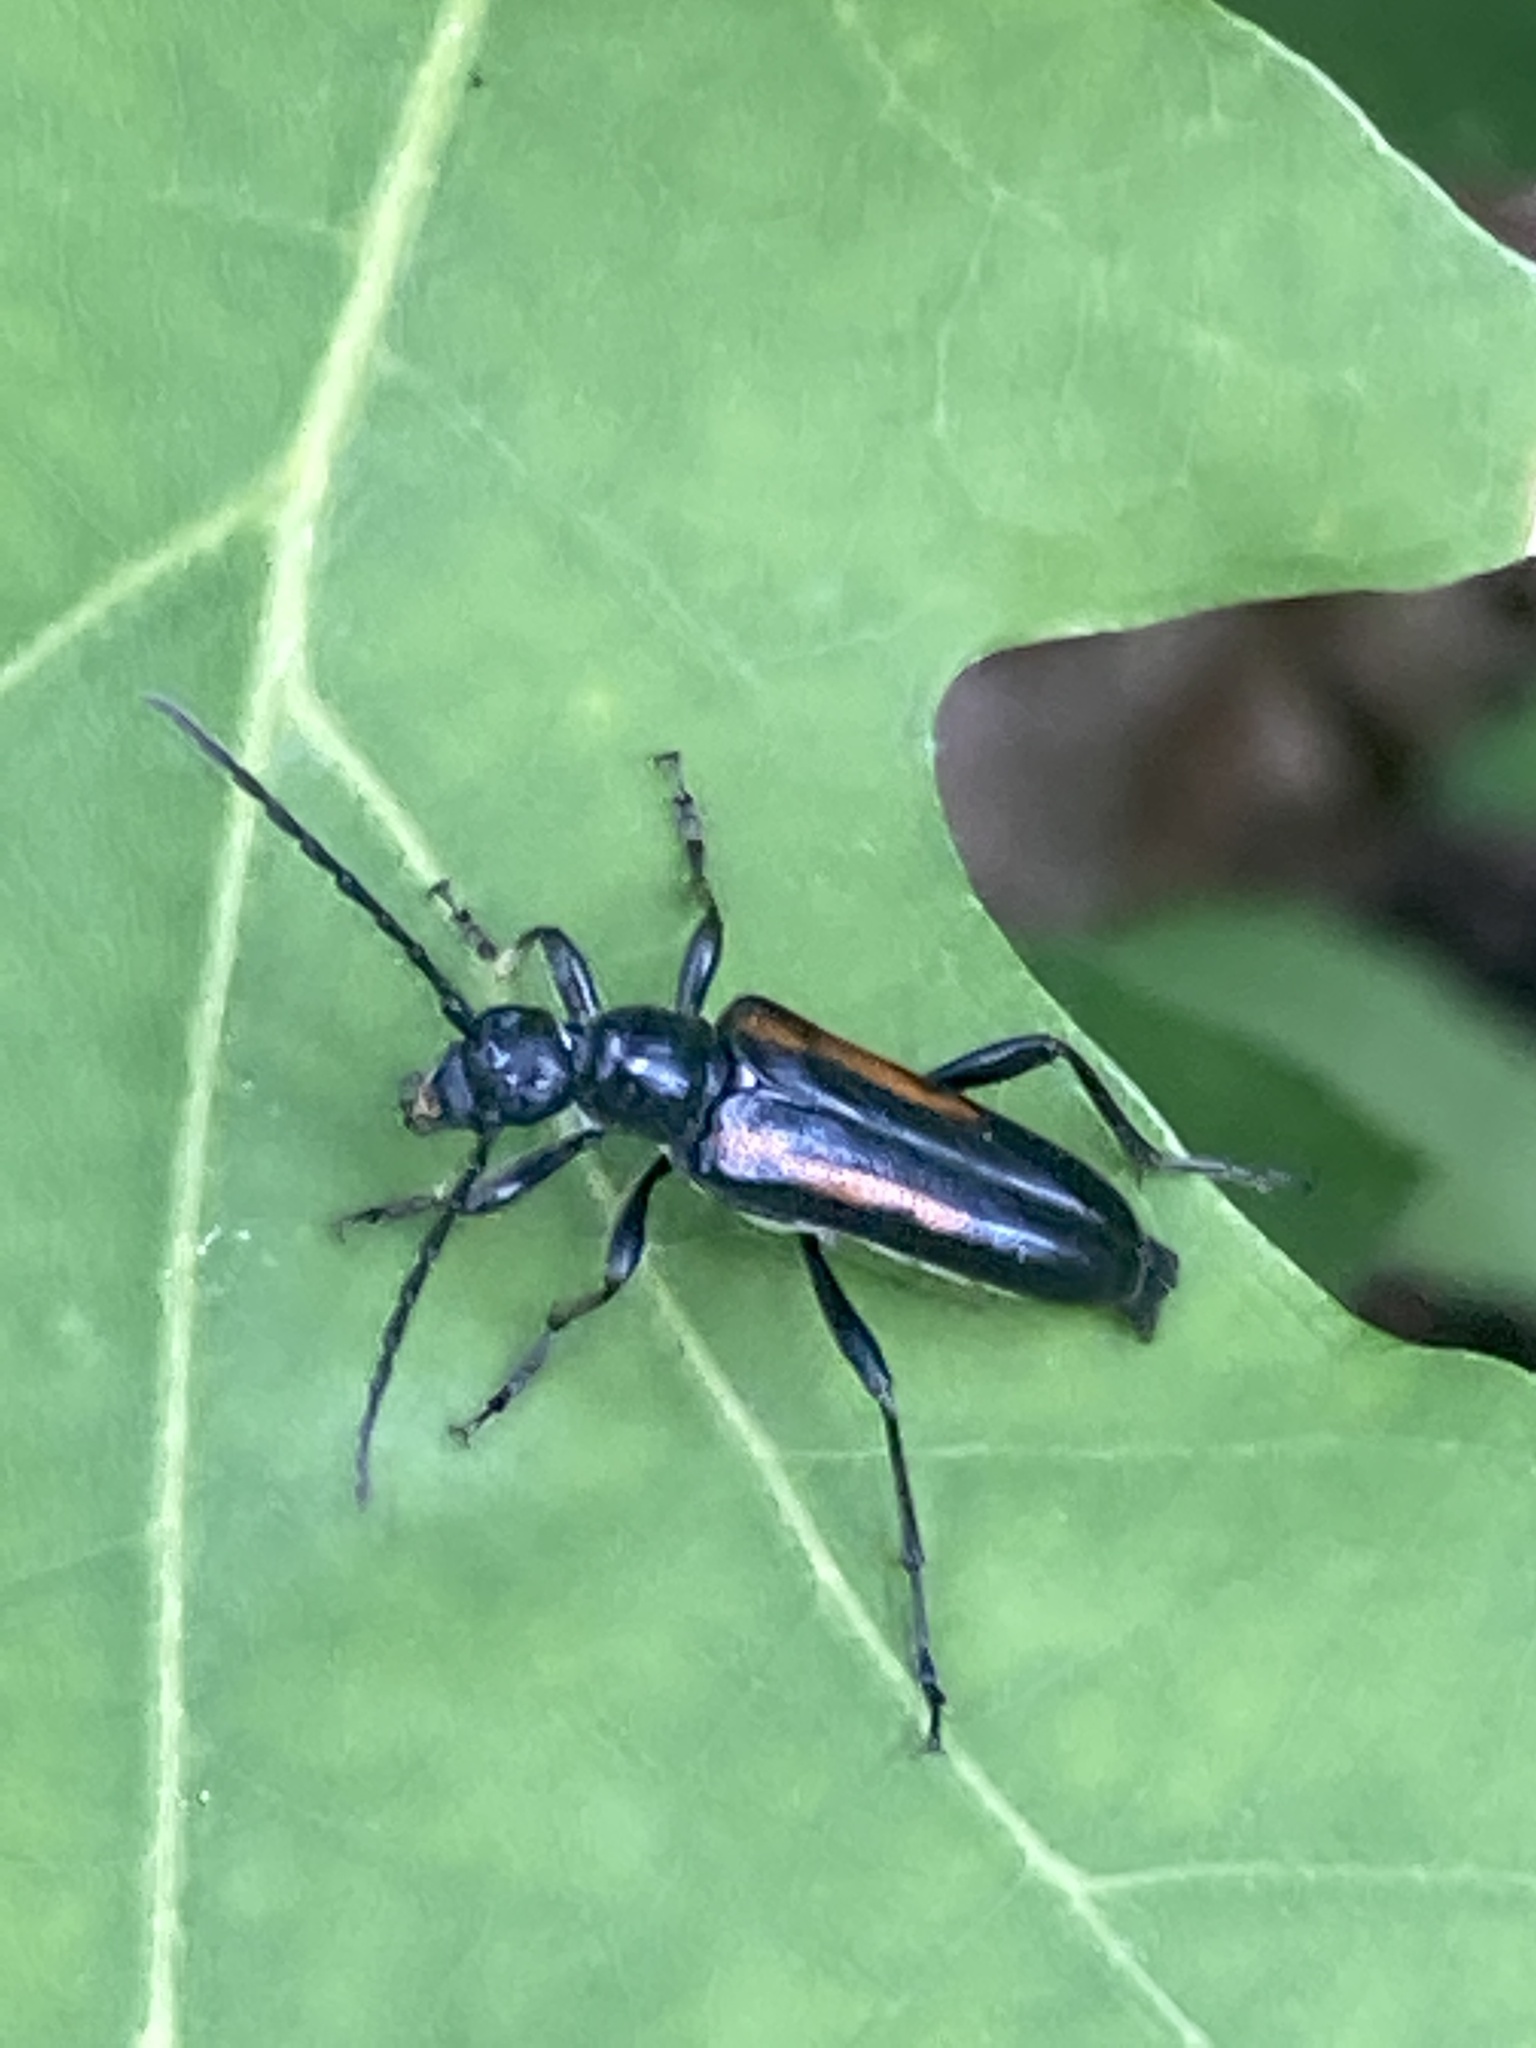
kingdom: Animalia
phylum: Arthropoda
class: Insecta
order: Coleoptera
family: Cerambycidae
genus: Strangalepta
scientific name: Strangalepta abbreviata
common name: Strangalepta flower longhorn beetle
